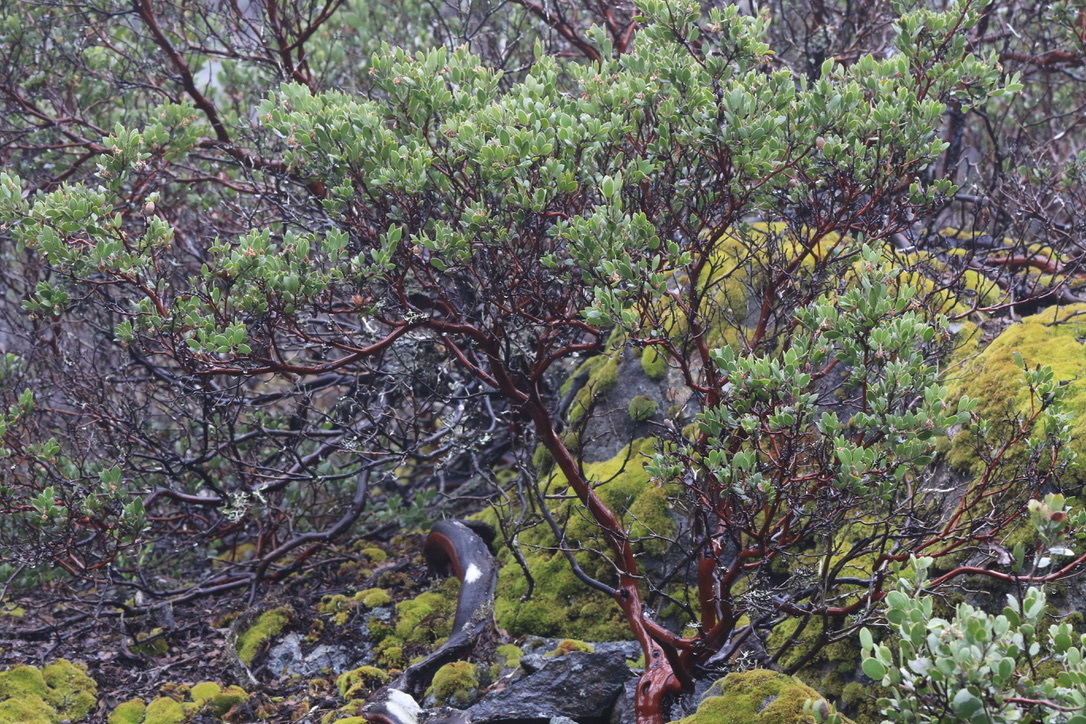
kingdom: Plantae
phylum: Tracheophyta
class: Magnoliopsida
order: Ericales
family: Ericaceae
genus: Arctostaphylos
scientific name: Arctostaphylos montana
